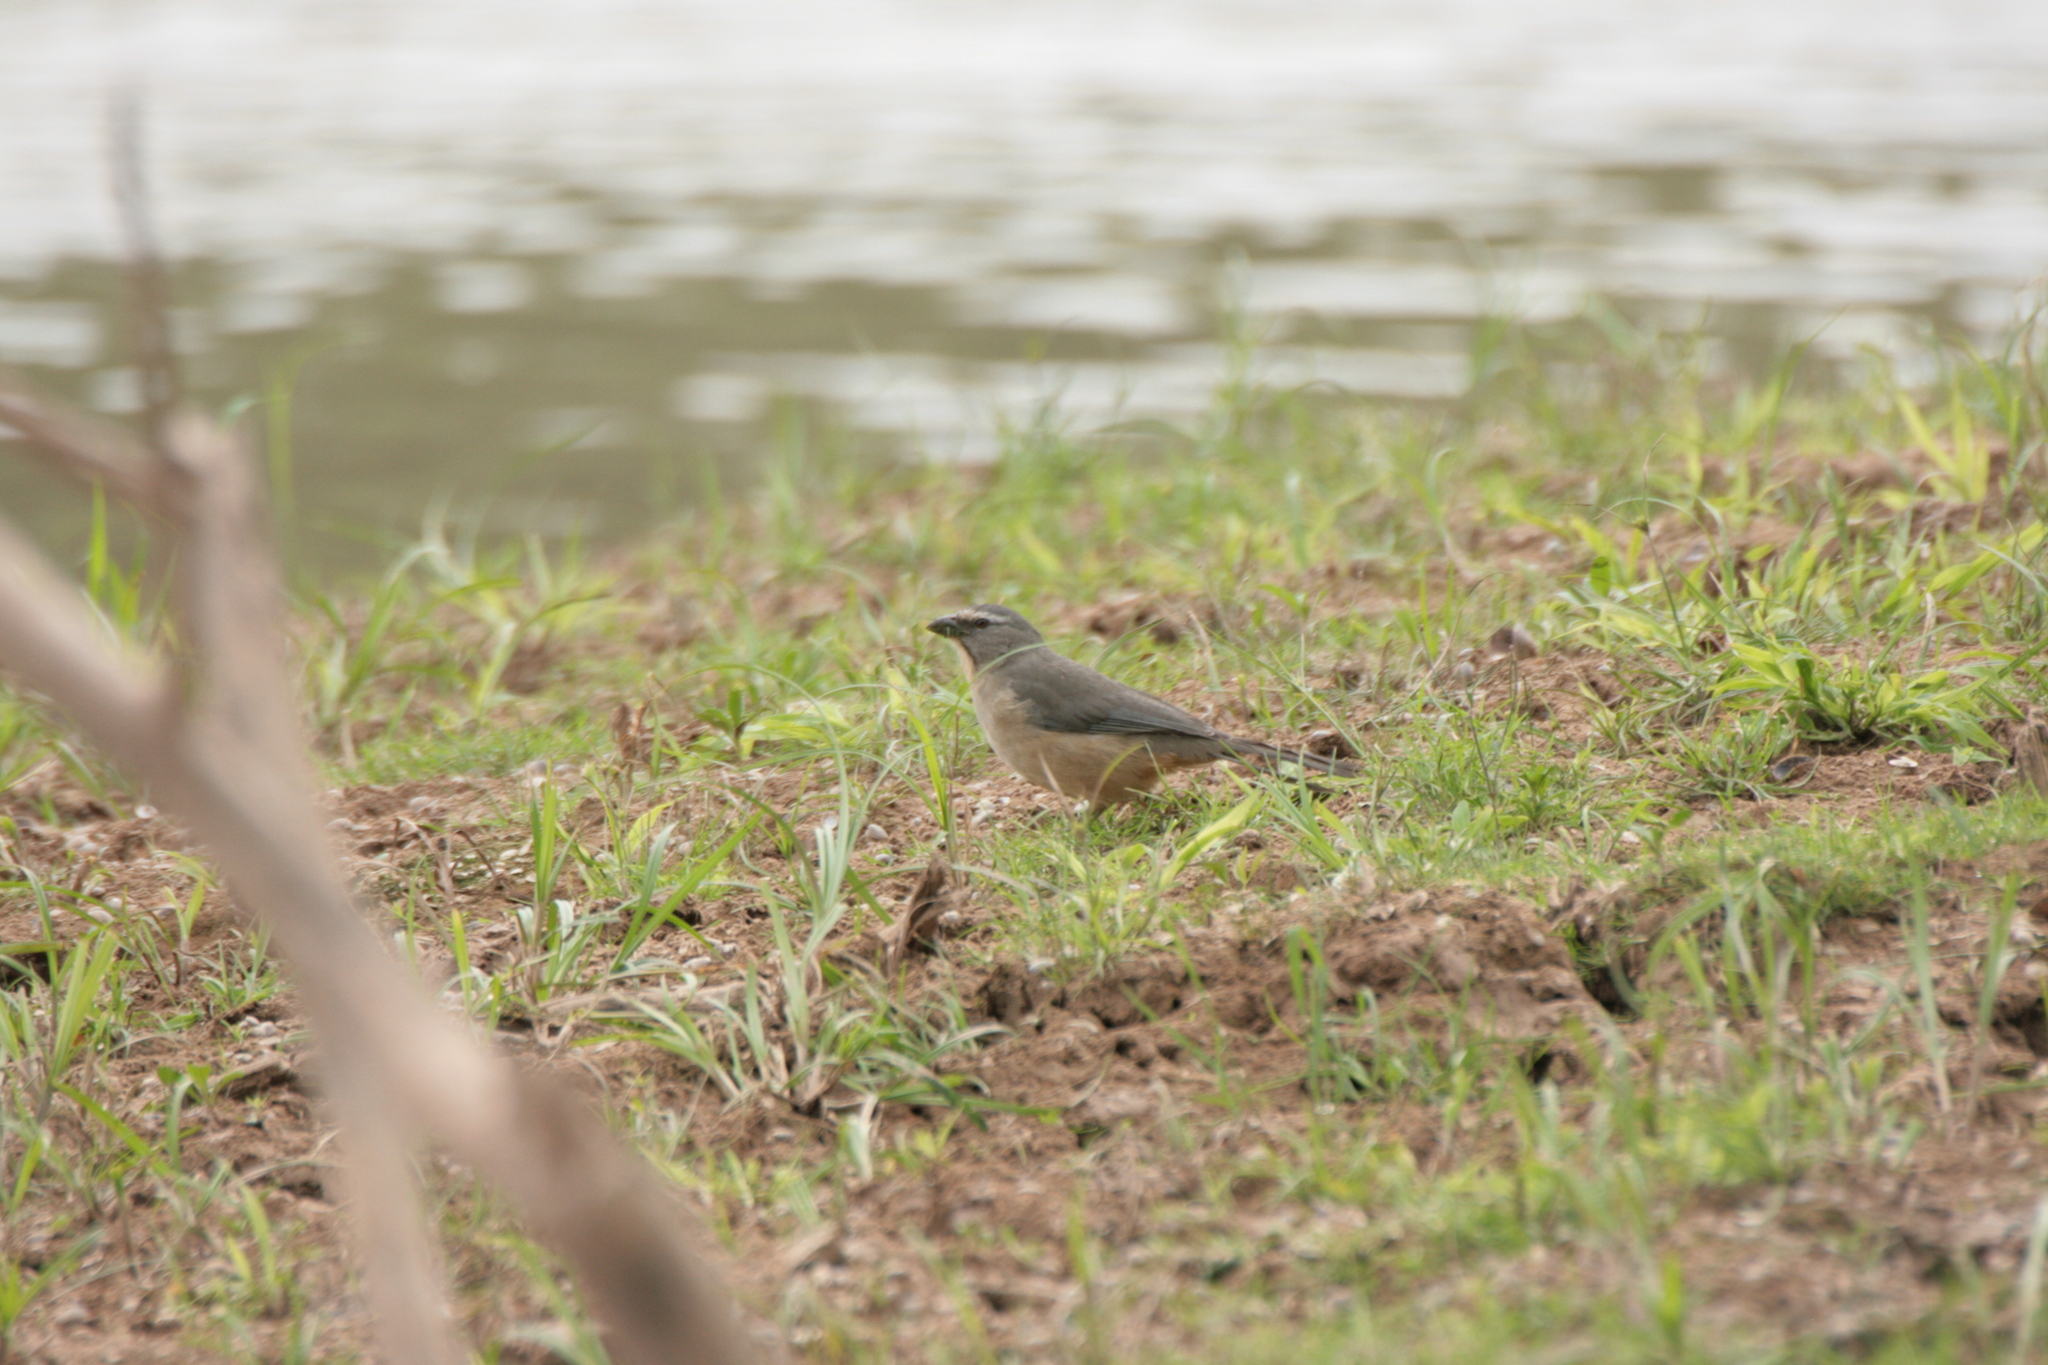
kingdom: Animalia
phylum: Chordata
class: Aves
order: Passeriformes
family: Thraupidae
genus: Saltator
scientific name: Saltator coerulescens
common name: Grayish saltator
